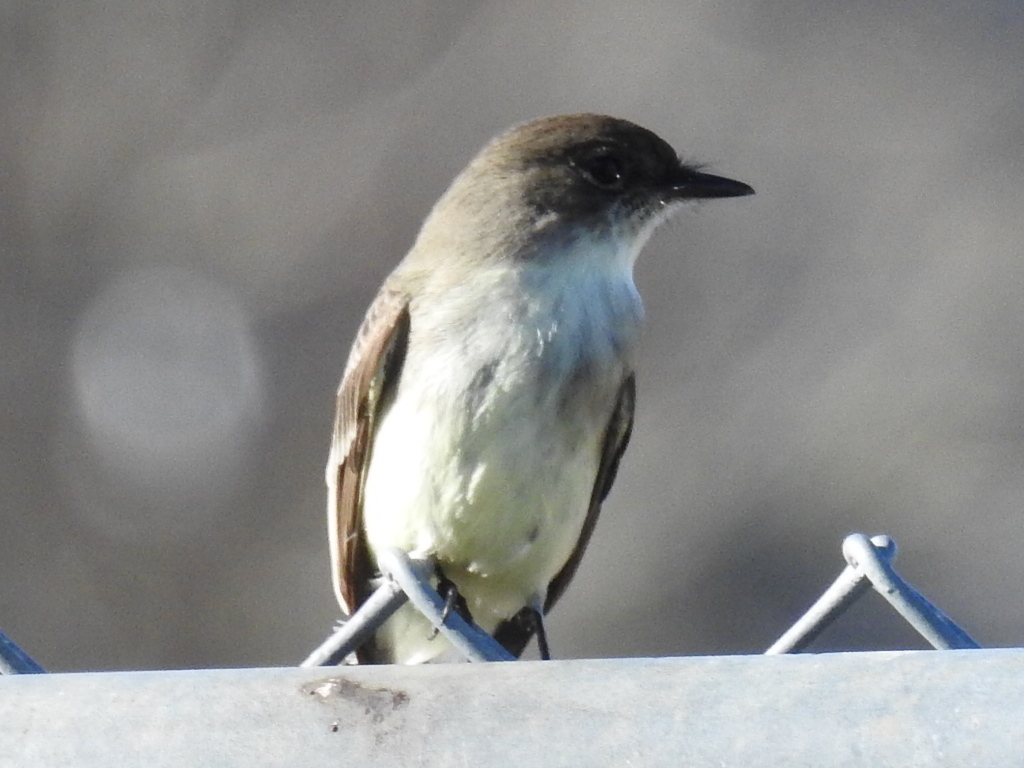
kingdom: Animalia
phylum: Chordata
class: Aves
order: Passeriformes
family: Tyrannidae
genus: Sayornis
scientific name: Sayornis phoebe
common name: Eastern phoebe
